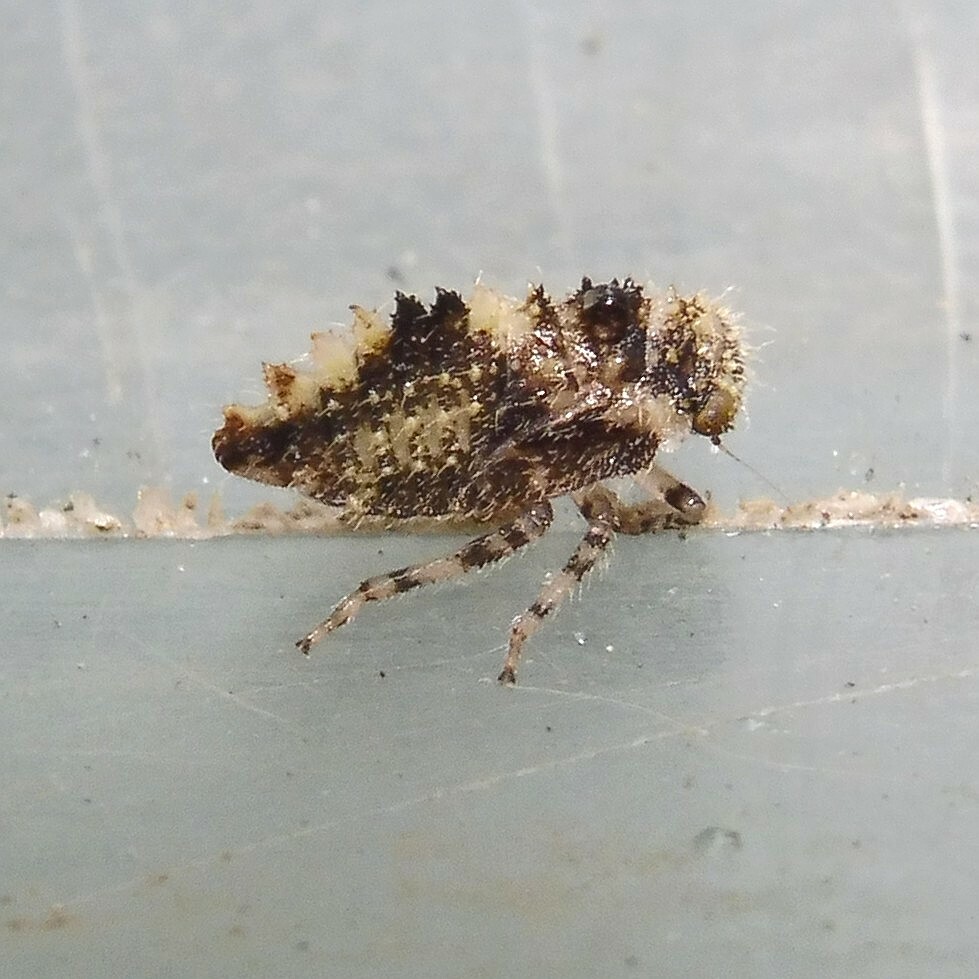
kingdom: Animalia
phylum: Arthropoda
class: Insecta
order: Hemiptera
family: Cicadellidae
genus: Macropsis
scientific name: Macropsis scutellata
